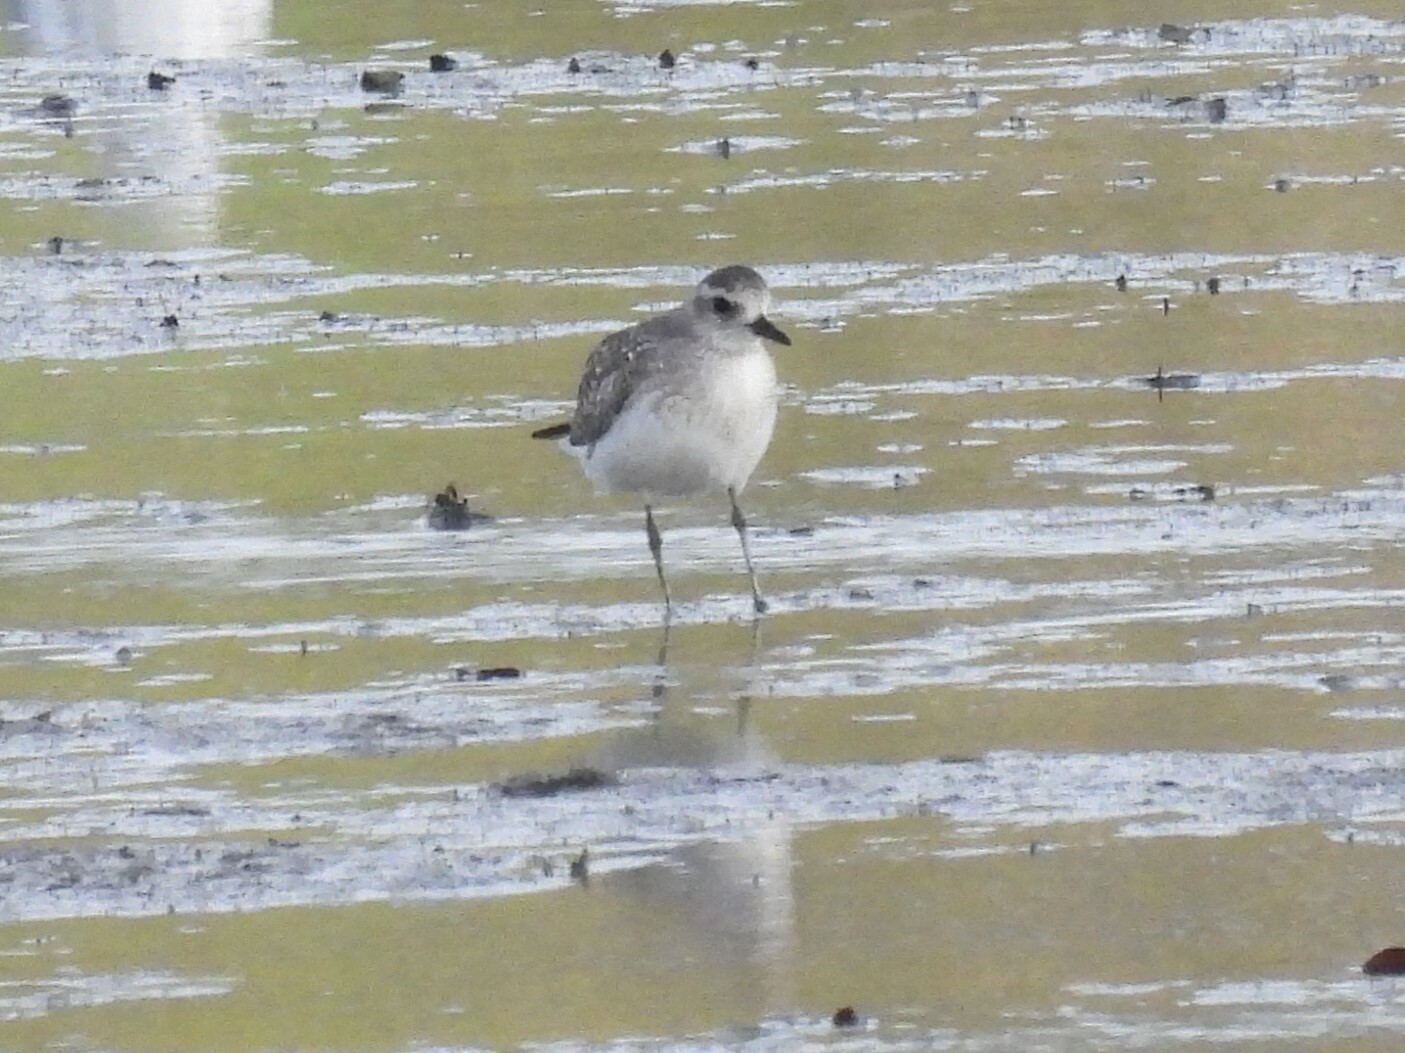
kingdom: Animalia
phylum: Chordata
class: Aves
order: Charadriiformes
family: Charadriidae
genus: Pluvialis
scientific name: Pluvialis squatarola
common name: Grey plover
